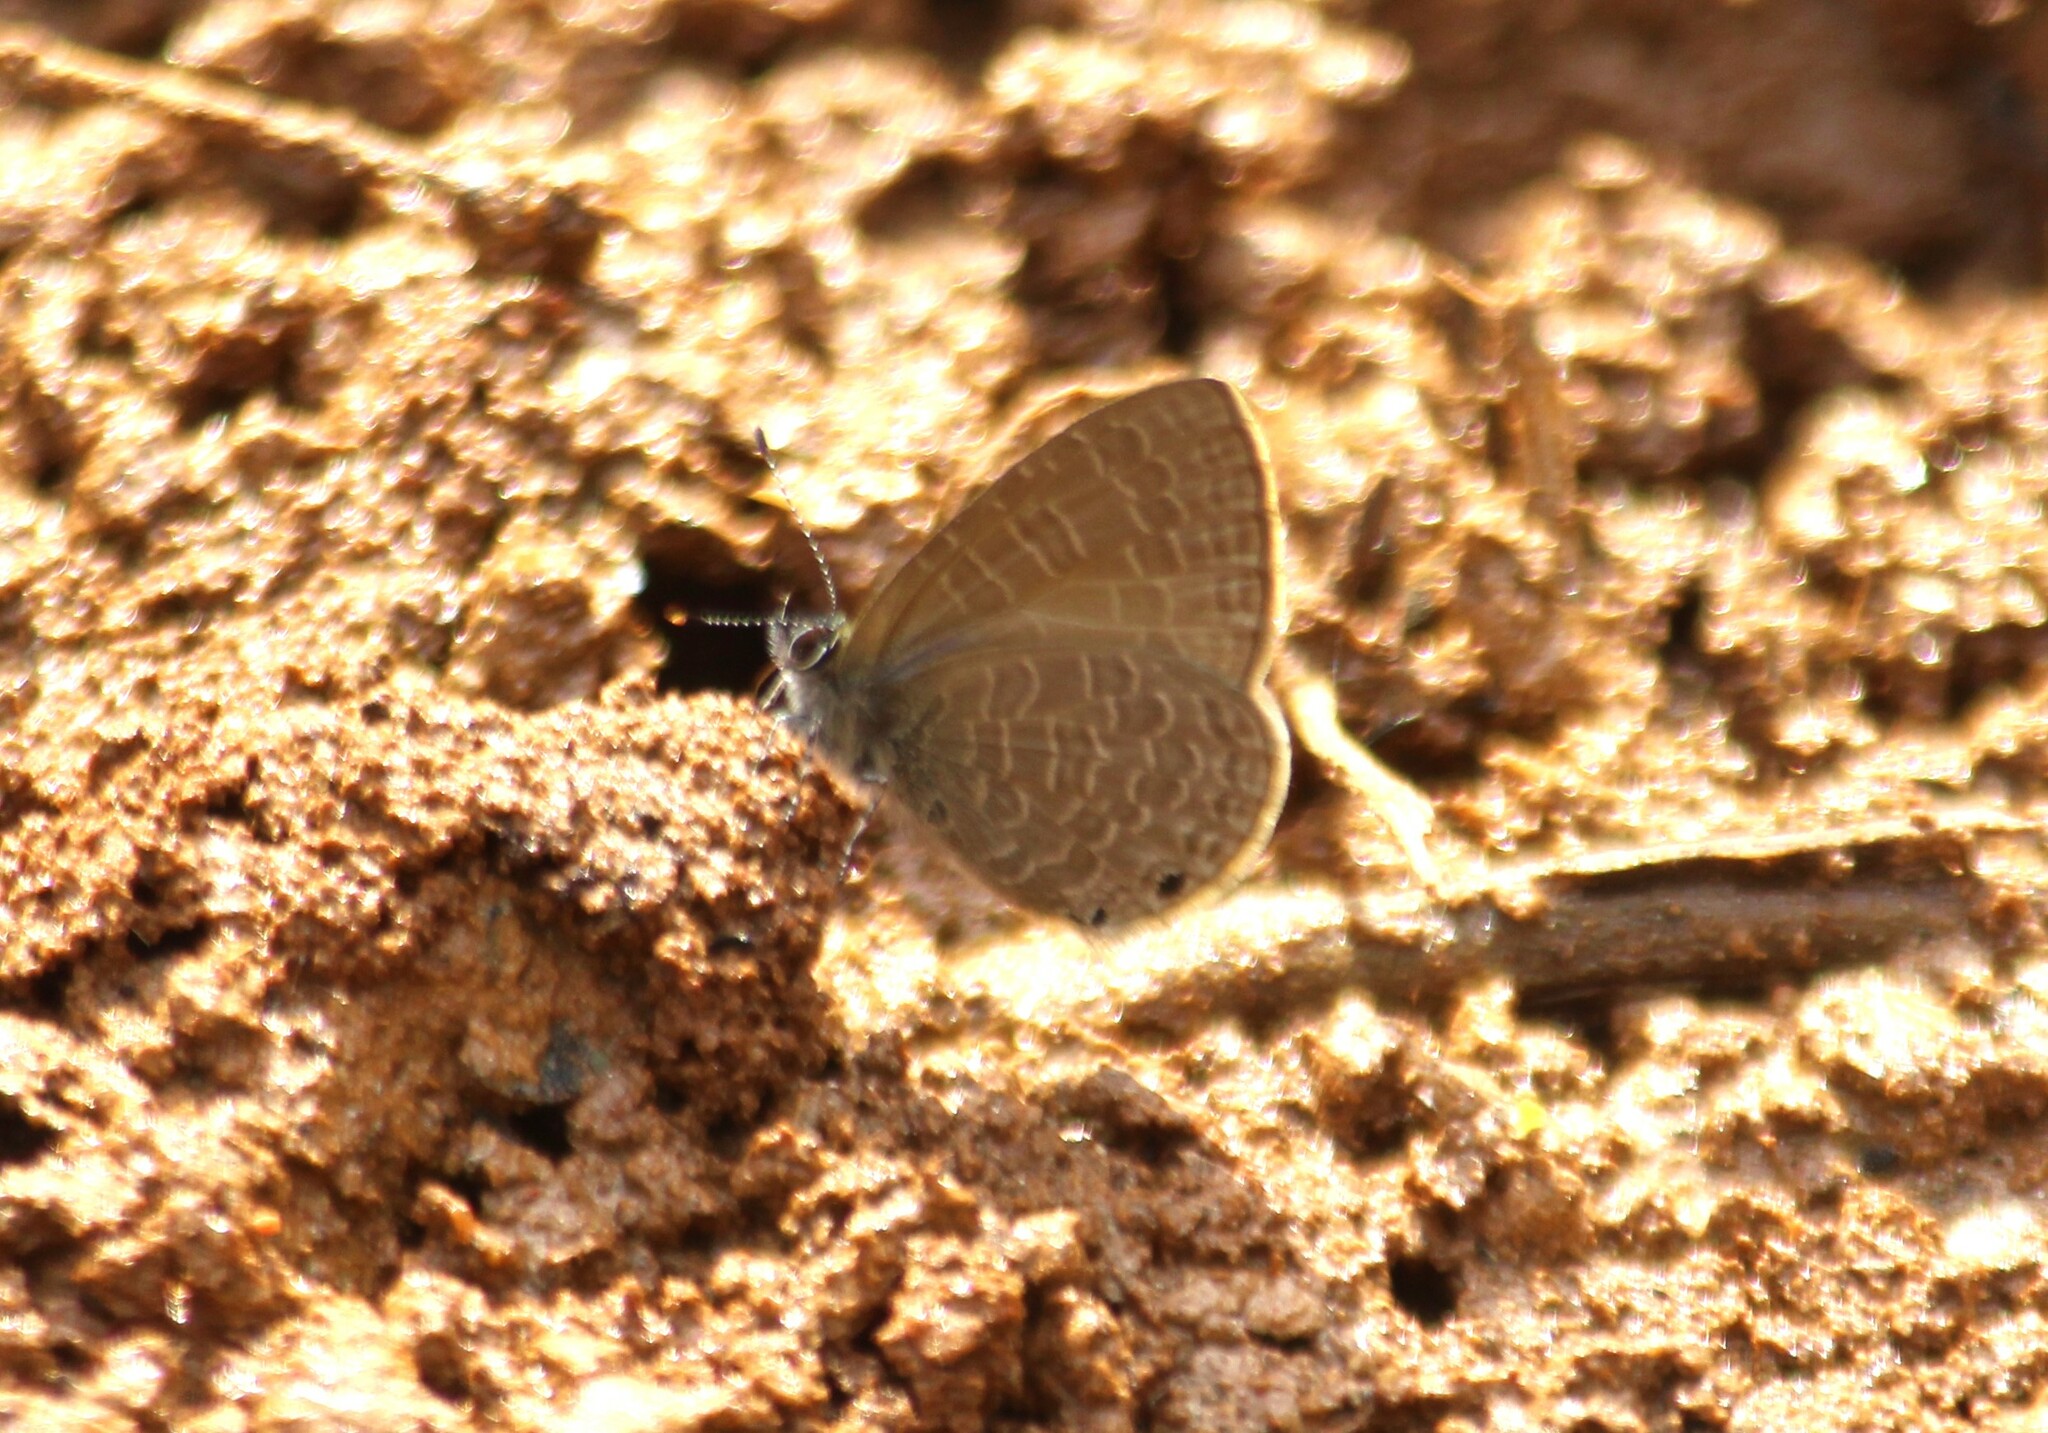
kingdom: Animalia
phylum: Arthropoda
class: Insecta
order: Lepidoptera
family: Lycaenidae
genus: Petrelaea
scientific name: Petrelaea dana
